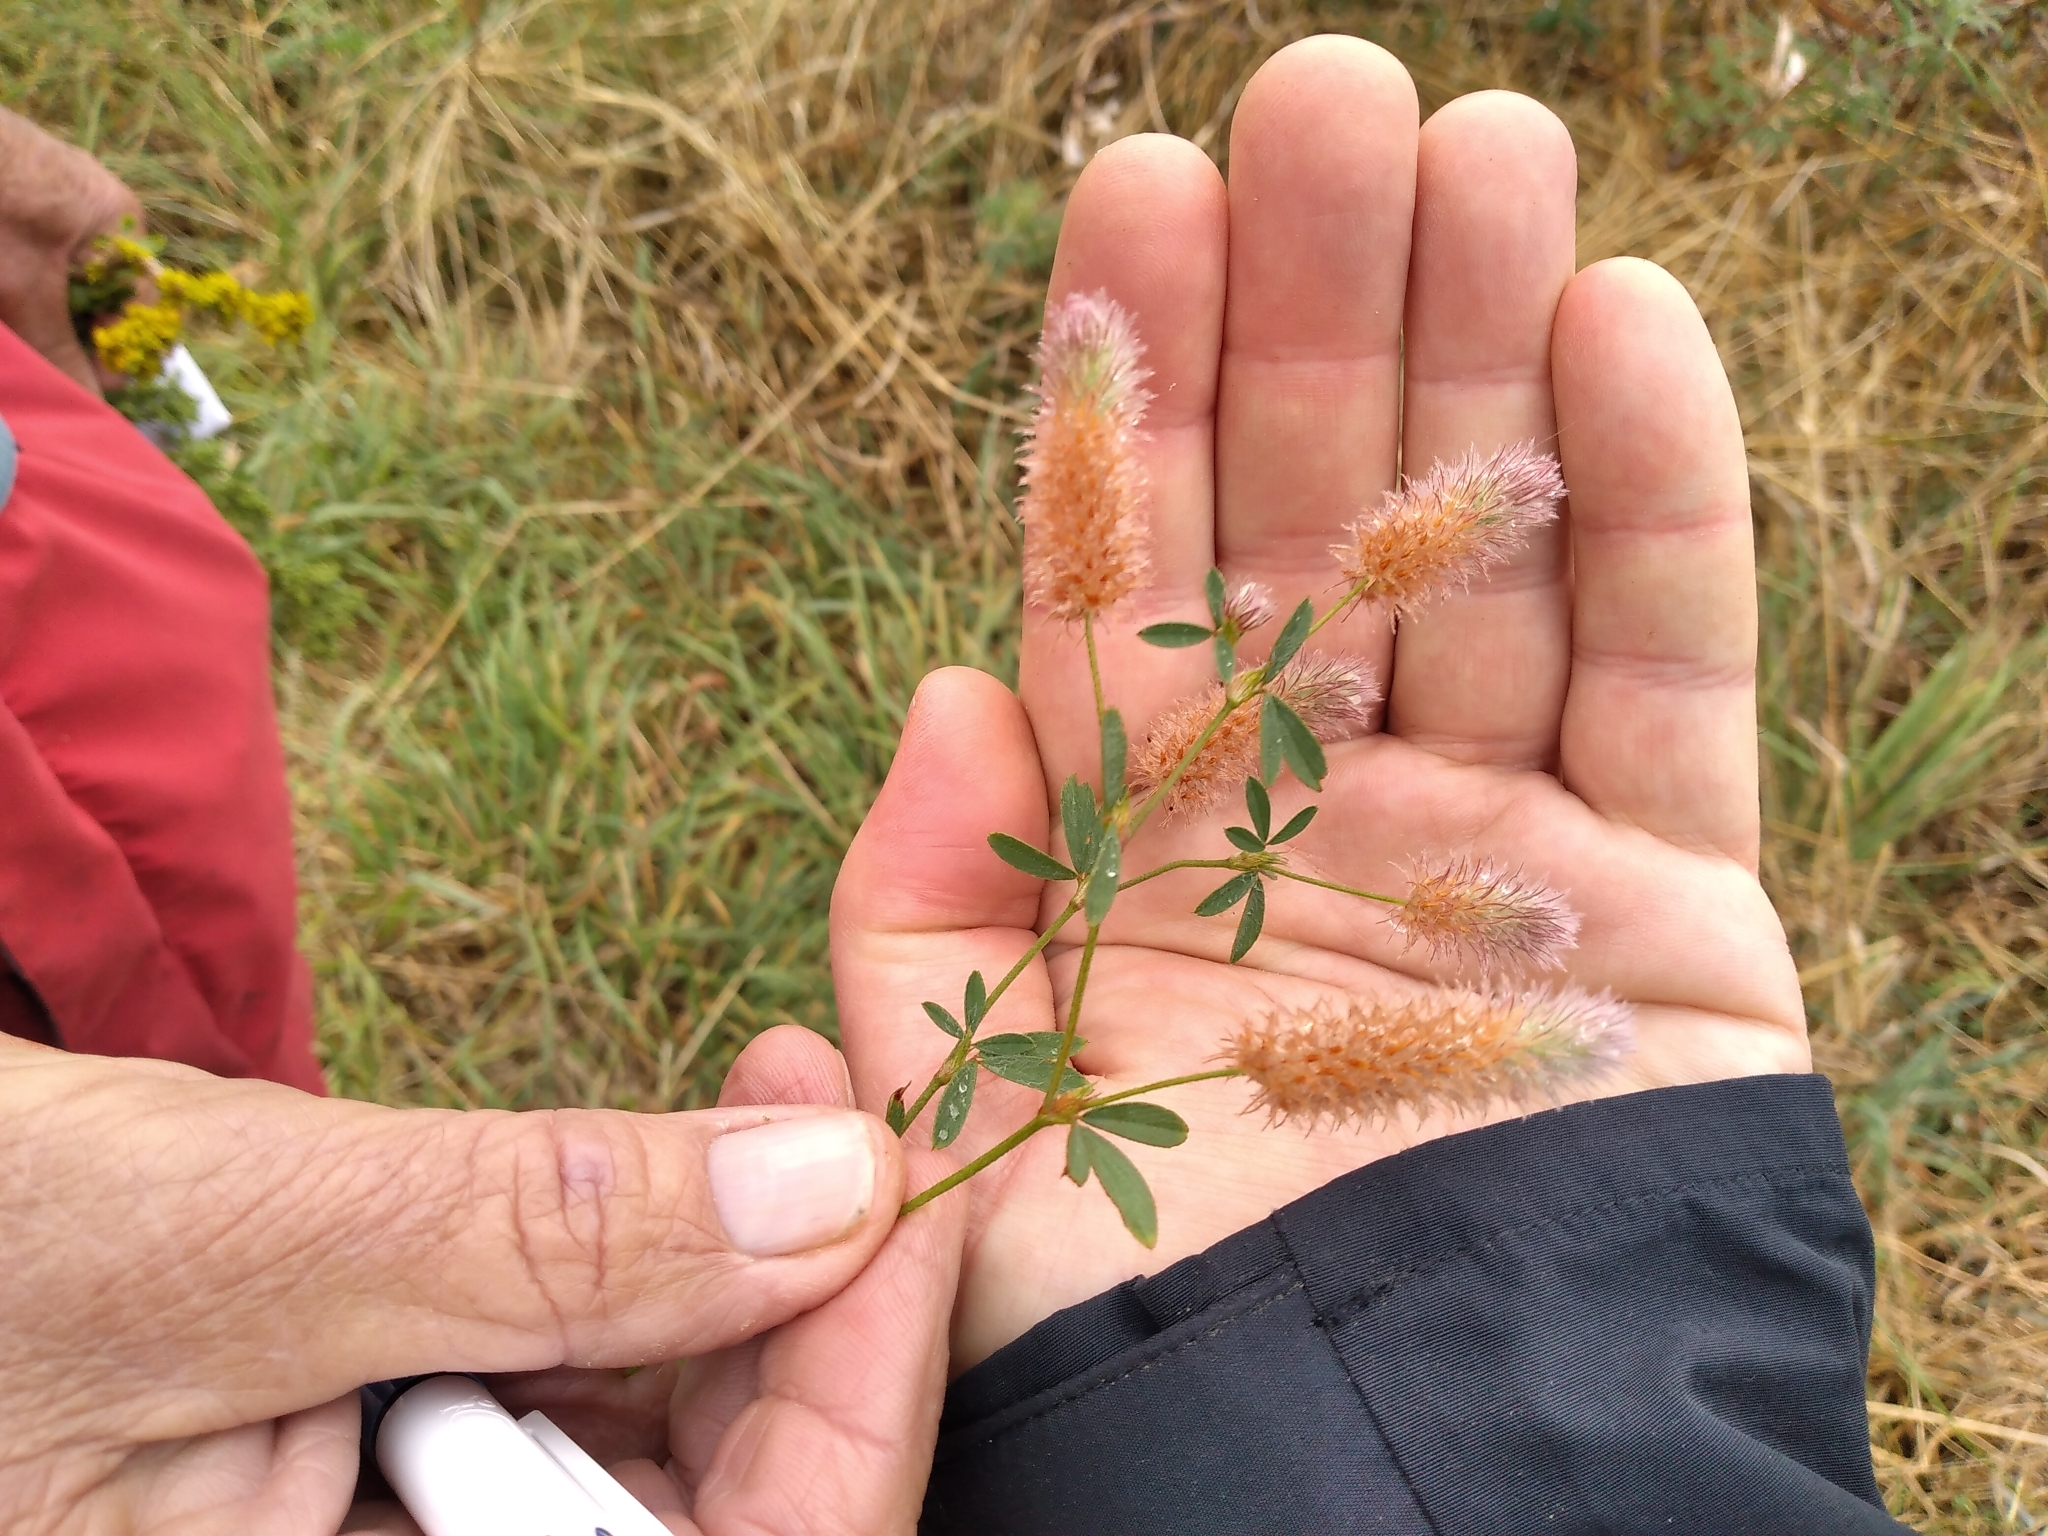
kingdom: Plantae
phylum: Tracheophyta
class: Magnoliopsida
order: Fabales
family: Fabaceae
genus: Trifolium
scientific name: Trifolium arvense
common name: Hare's-foot clover
